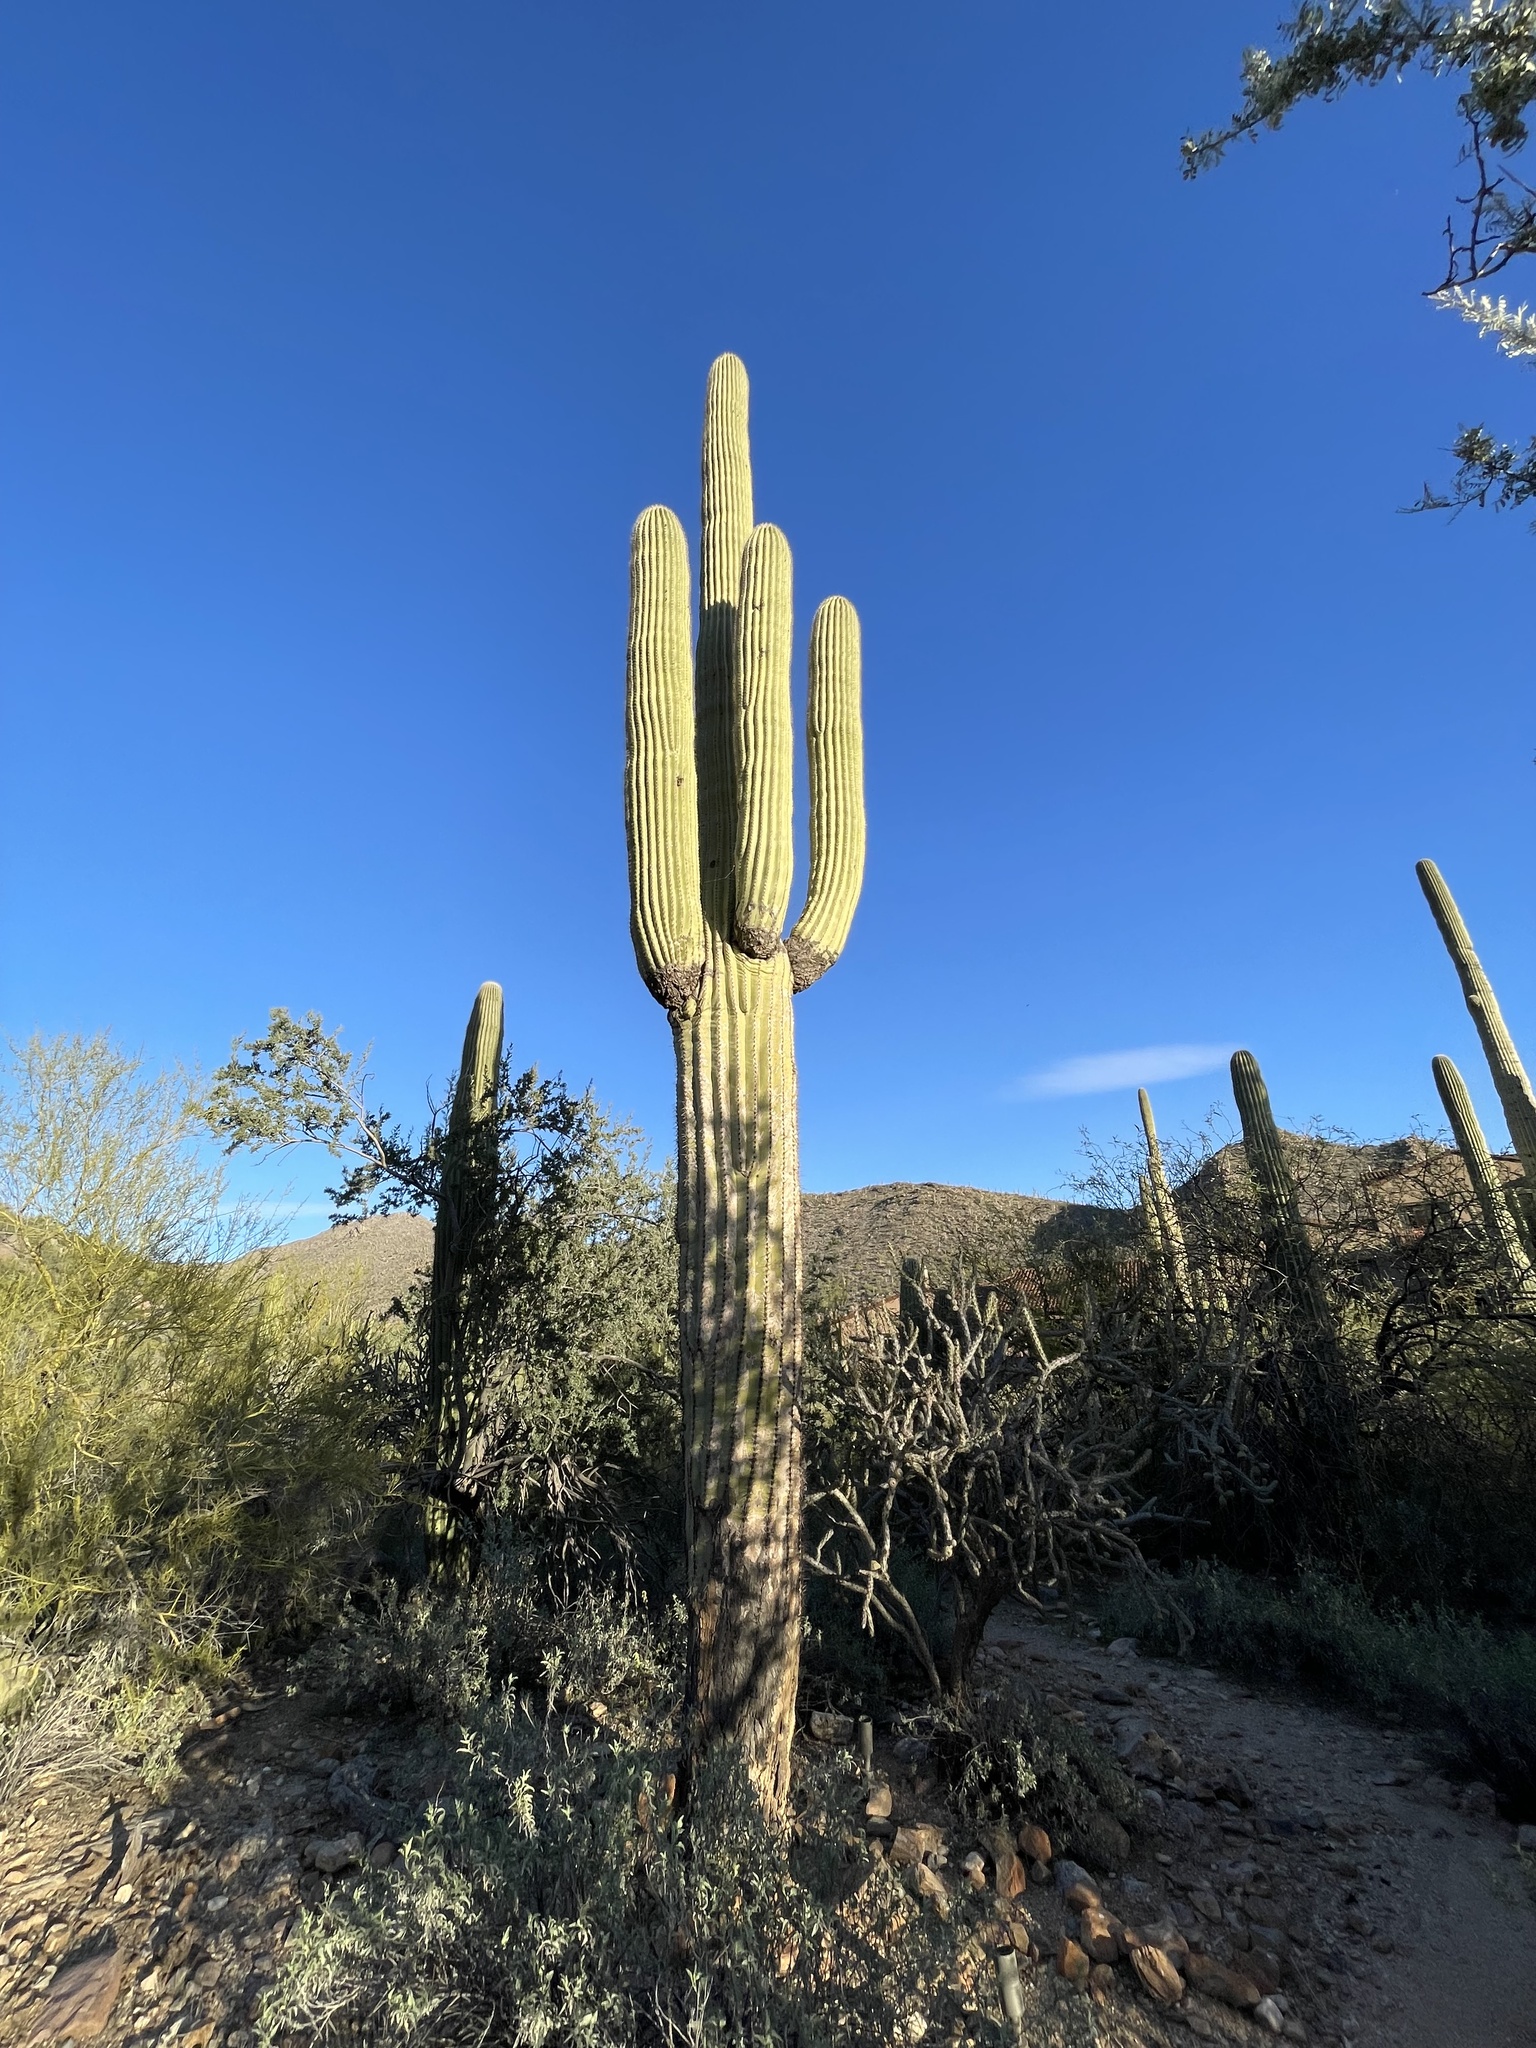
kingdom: Plantae
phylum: Tracheophyta
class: Magnoliopsida
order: Caryophyllales
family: Cactaceae
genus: Carnegiea
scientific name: Carnegiea gigantea
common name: Saguaro
